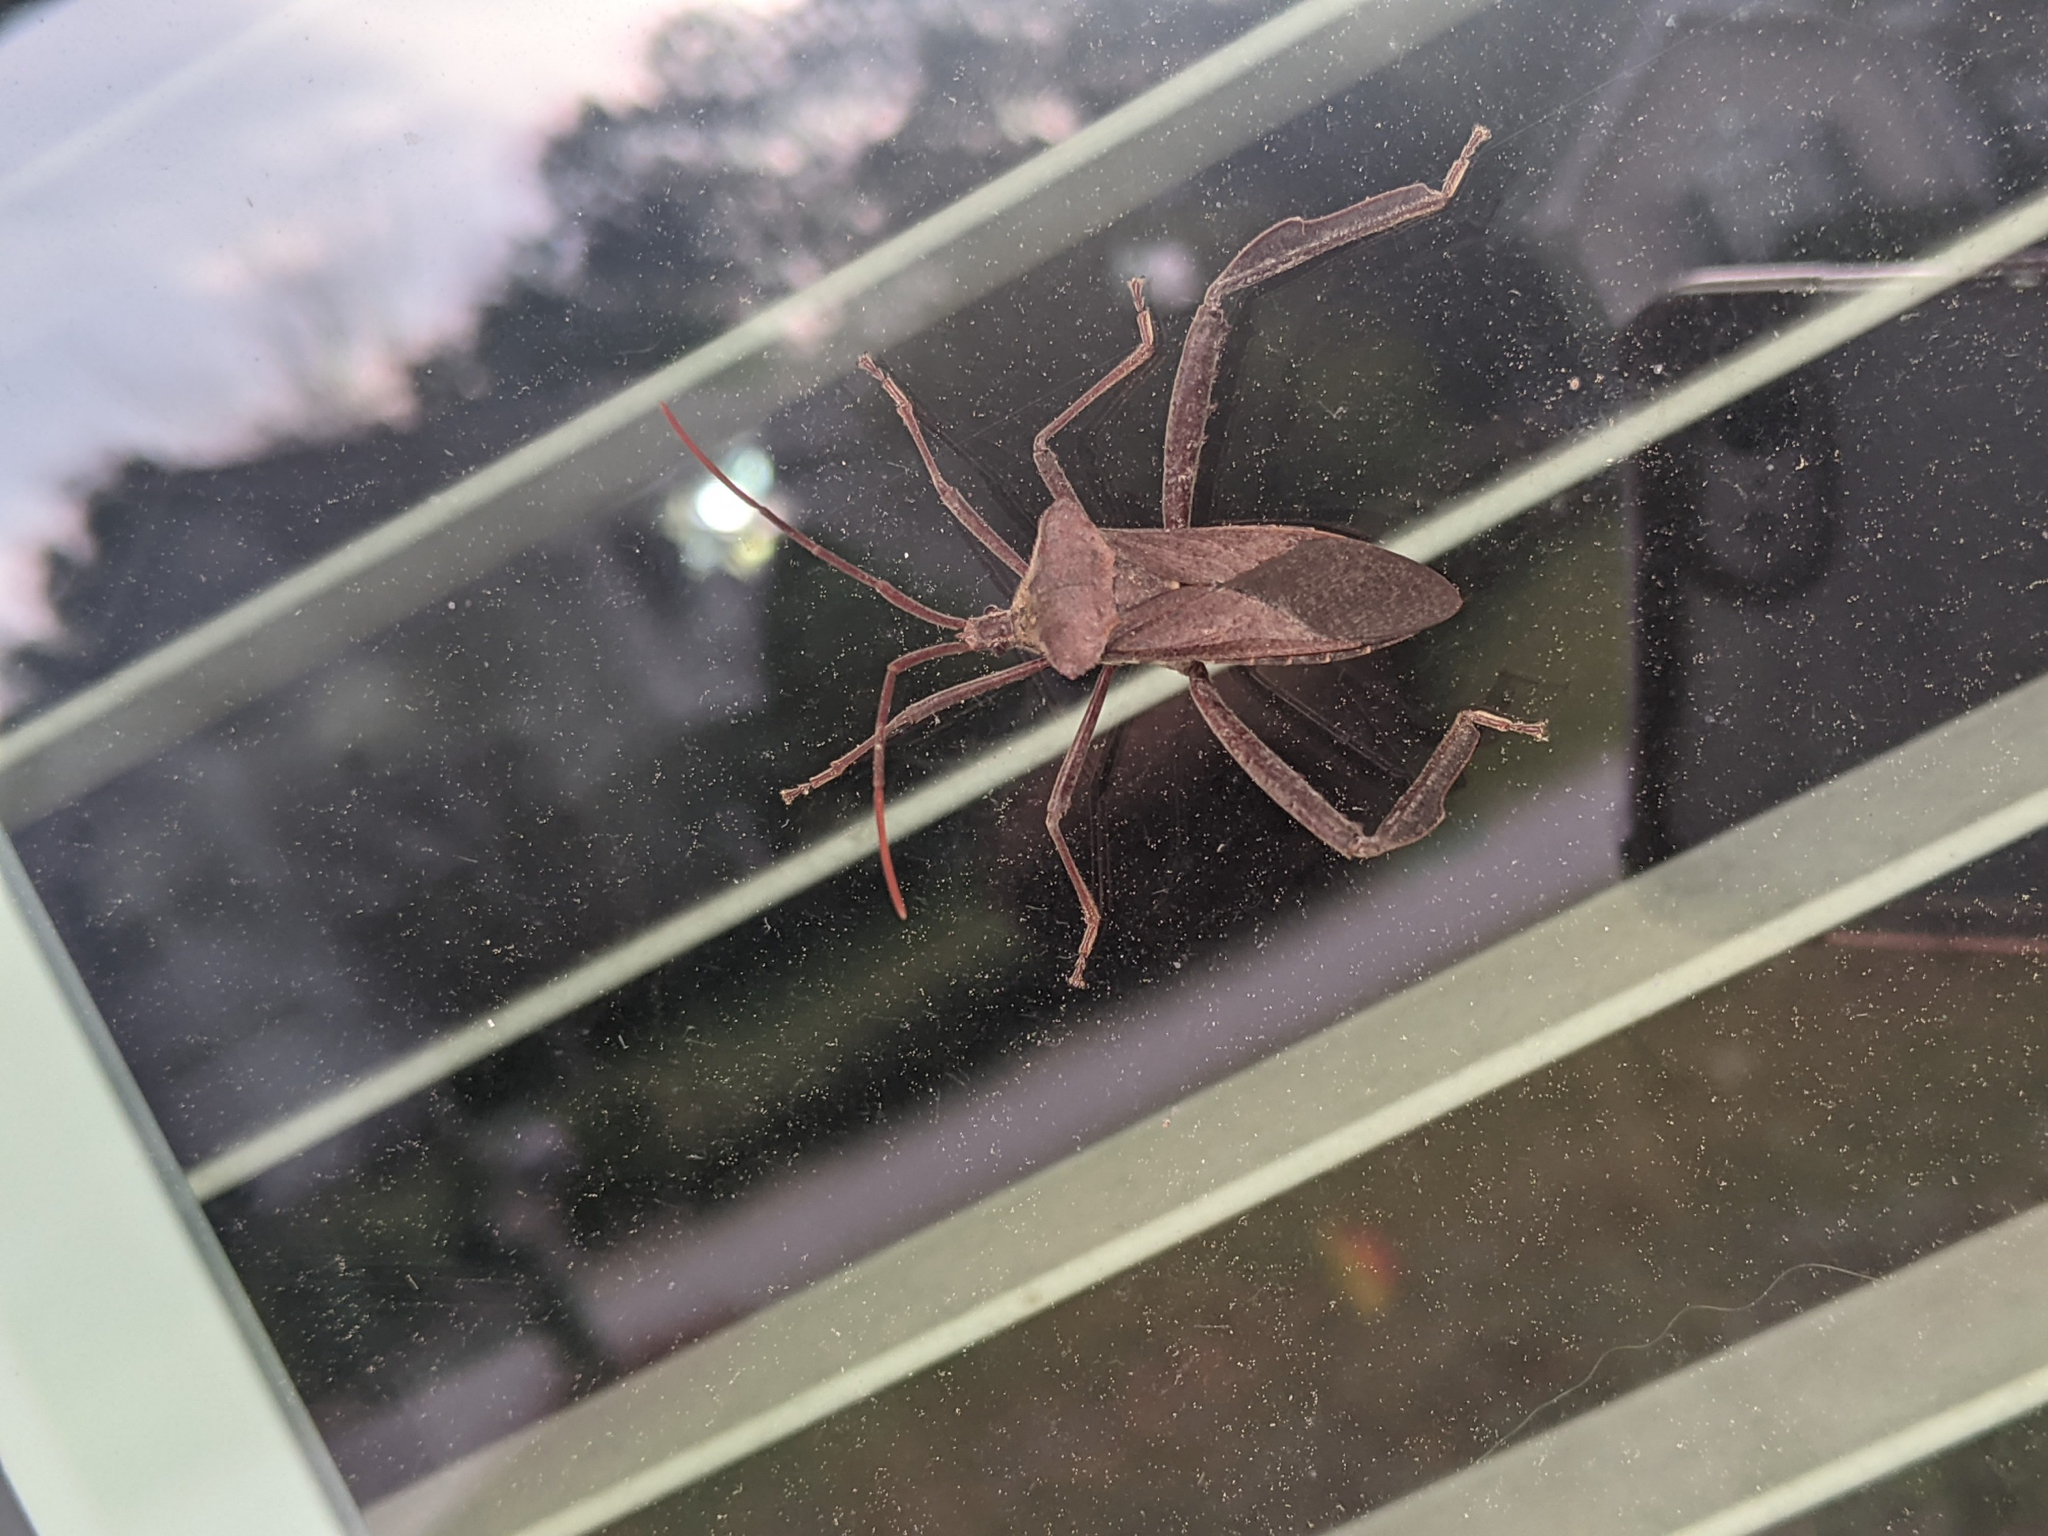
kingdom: Animalia
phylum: Arthropoda
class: Insecta
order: Hemiptera
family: Coreidae
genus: Acanthocephala
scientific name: Acanthocephala declivis
